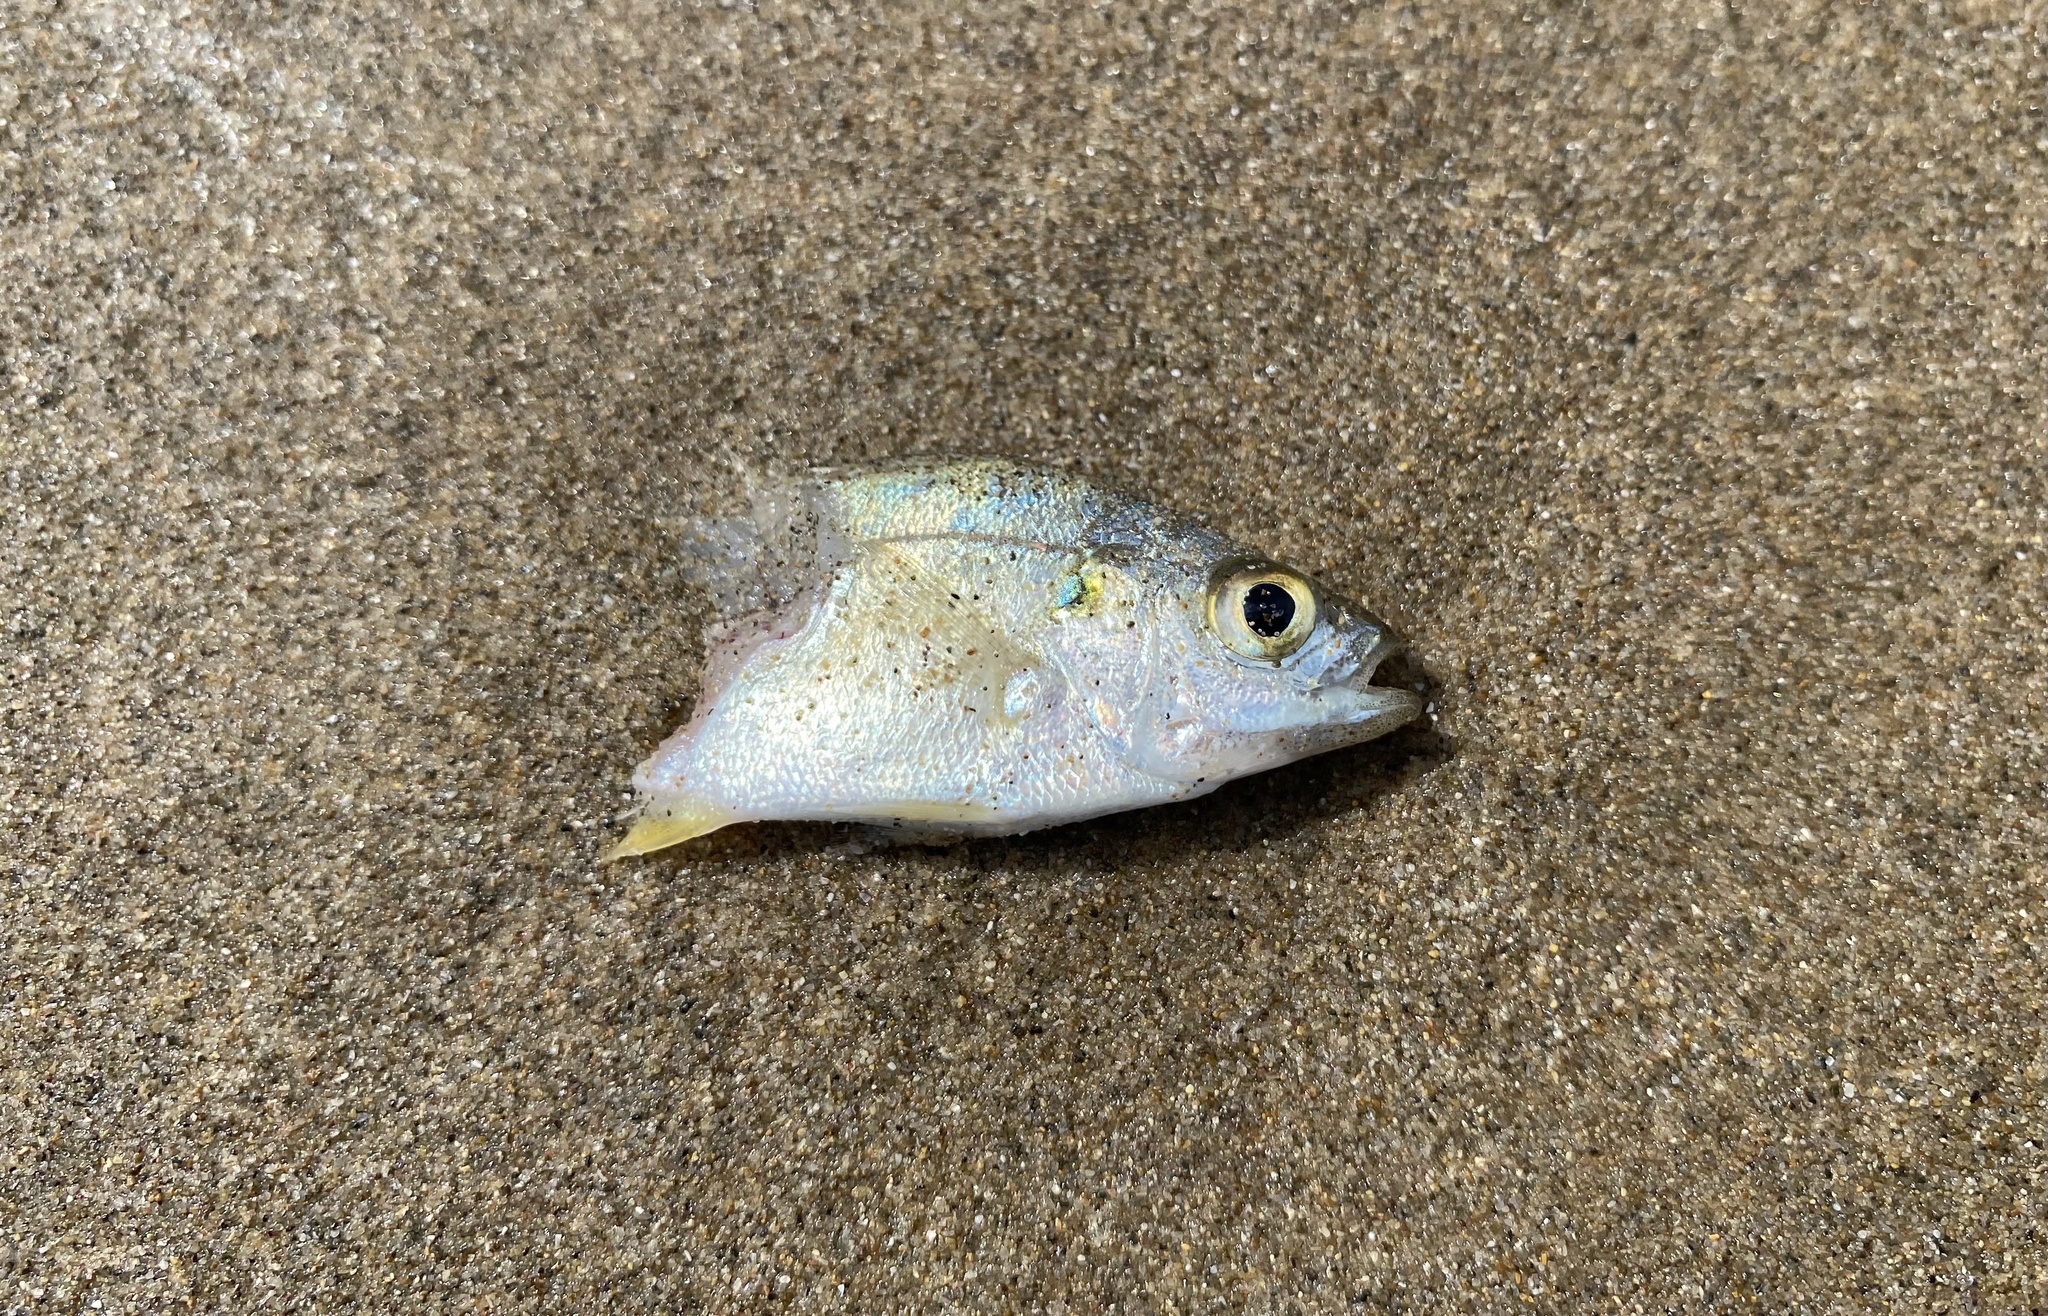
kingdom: Animalia
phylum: Chordata
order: Perciformes
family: Haemulidae
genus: Pomadasys
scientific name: Pomadasys olivaceus
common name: Olive grunt
